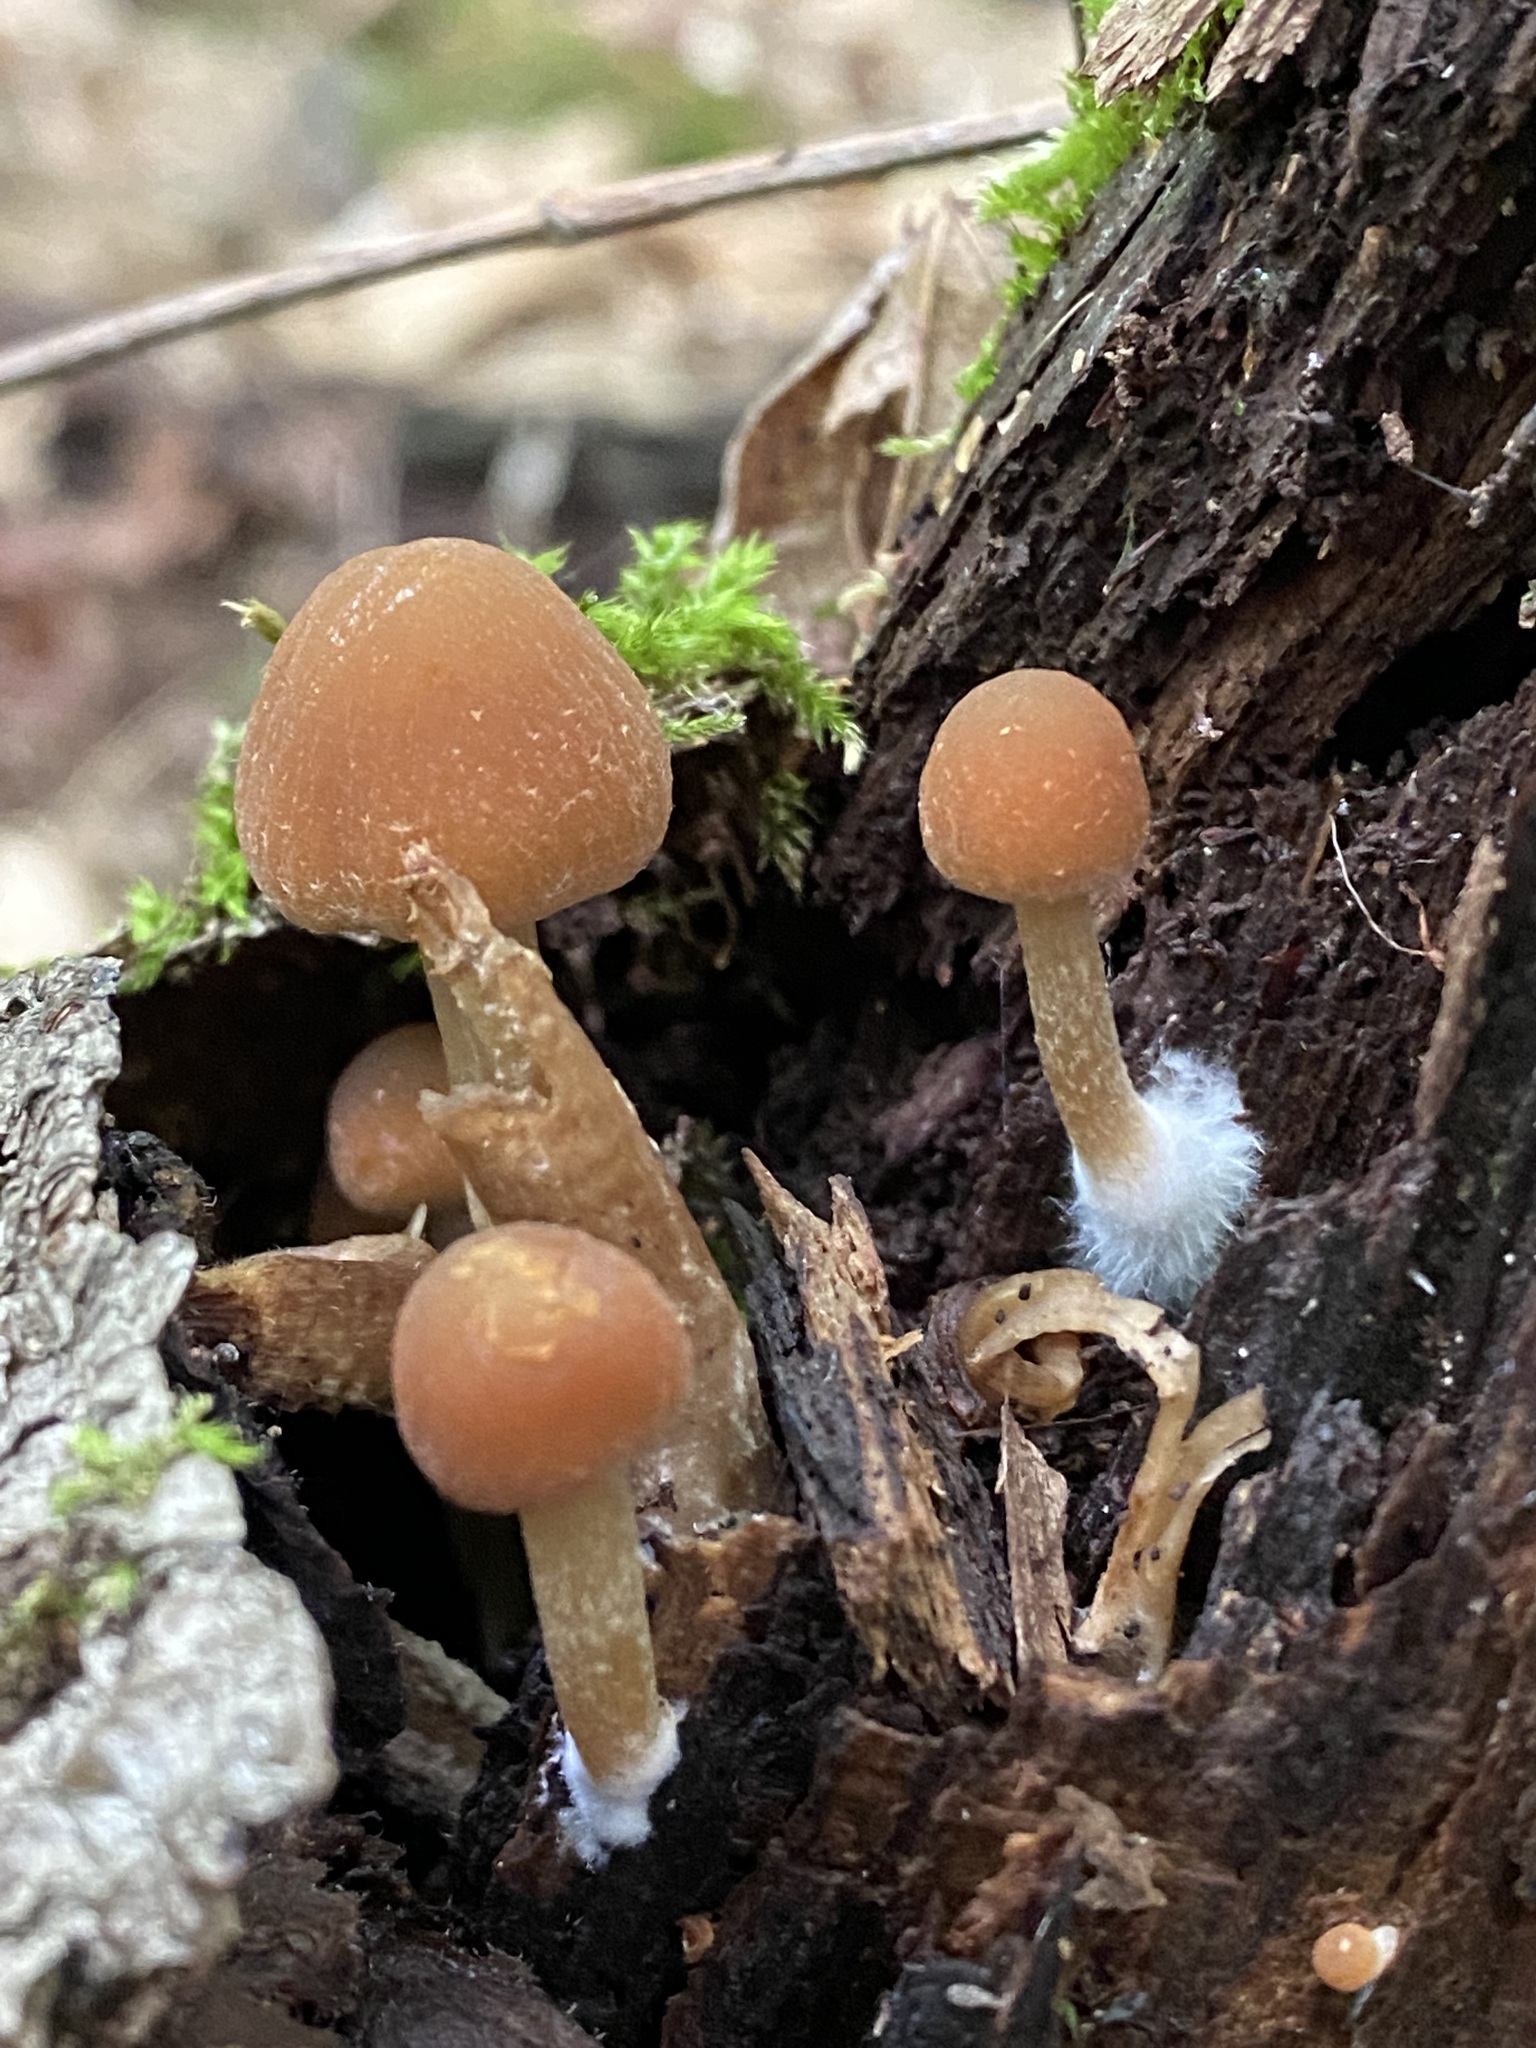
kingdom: Fungi
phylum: Basidiomycota
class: Agaricomycetes
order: Agaricales
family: Psathyrellaceae
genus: Psathyrella
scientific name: Psathyrella piluliformis
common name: Common stump brittlestem
